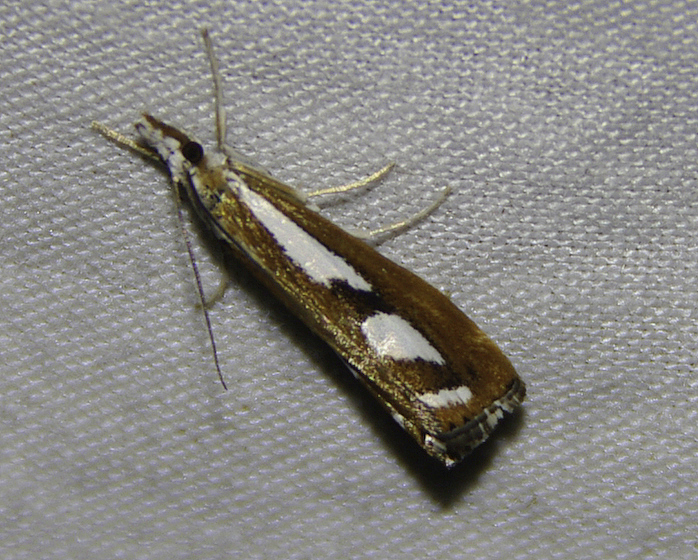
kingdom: Animalia
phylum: Arthropoda
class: Insecta
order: Lepidoptera
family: Crambidae
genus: Catoptria
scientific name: Catoptria latiradiellus
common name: Two-banded catoptria moth
